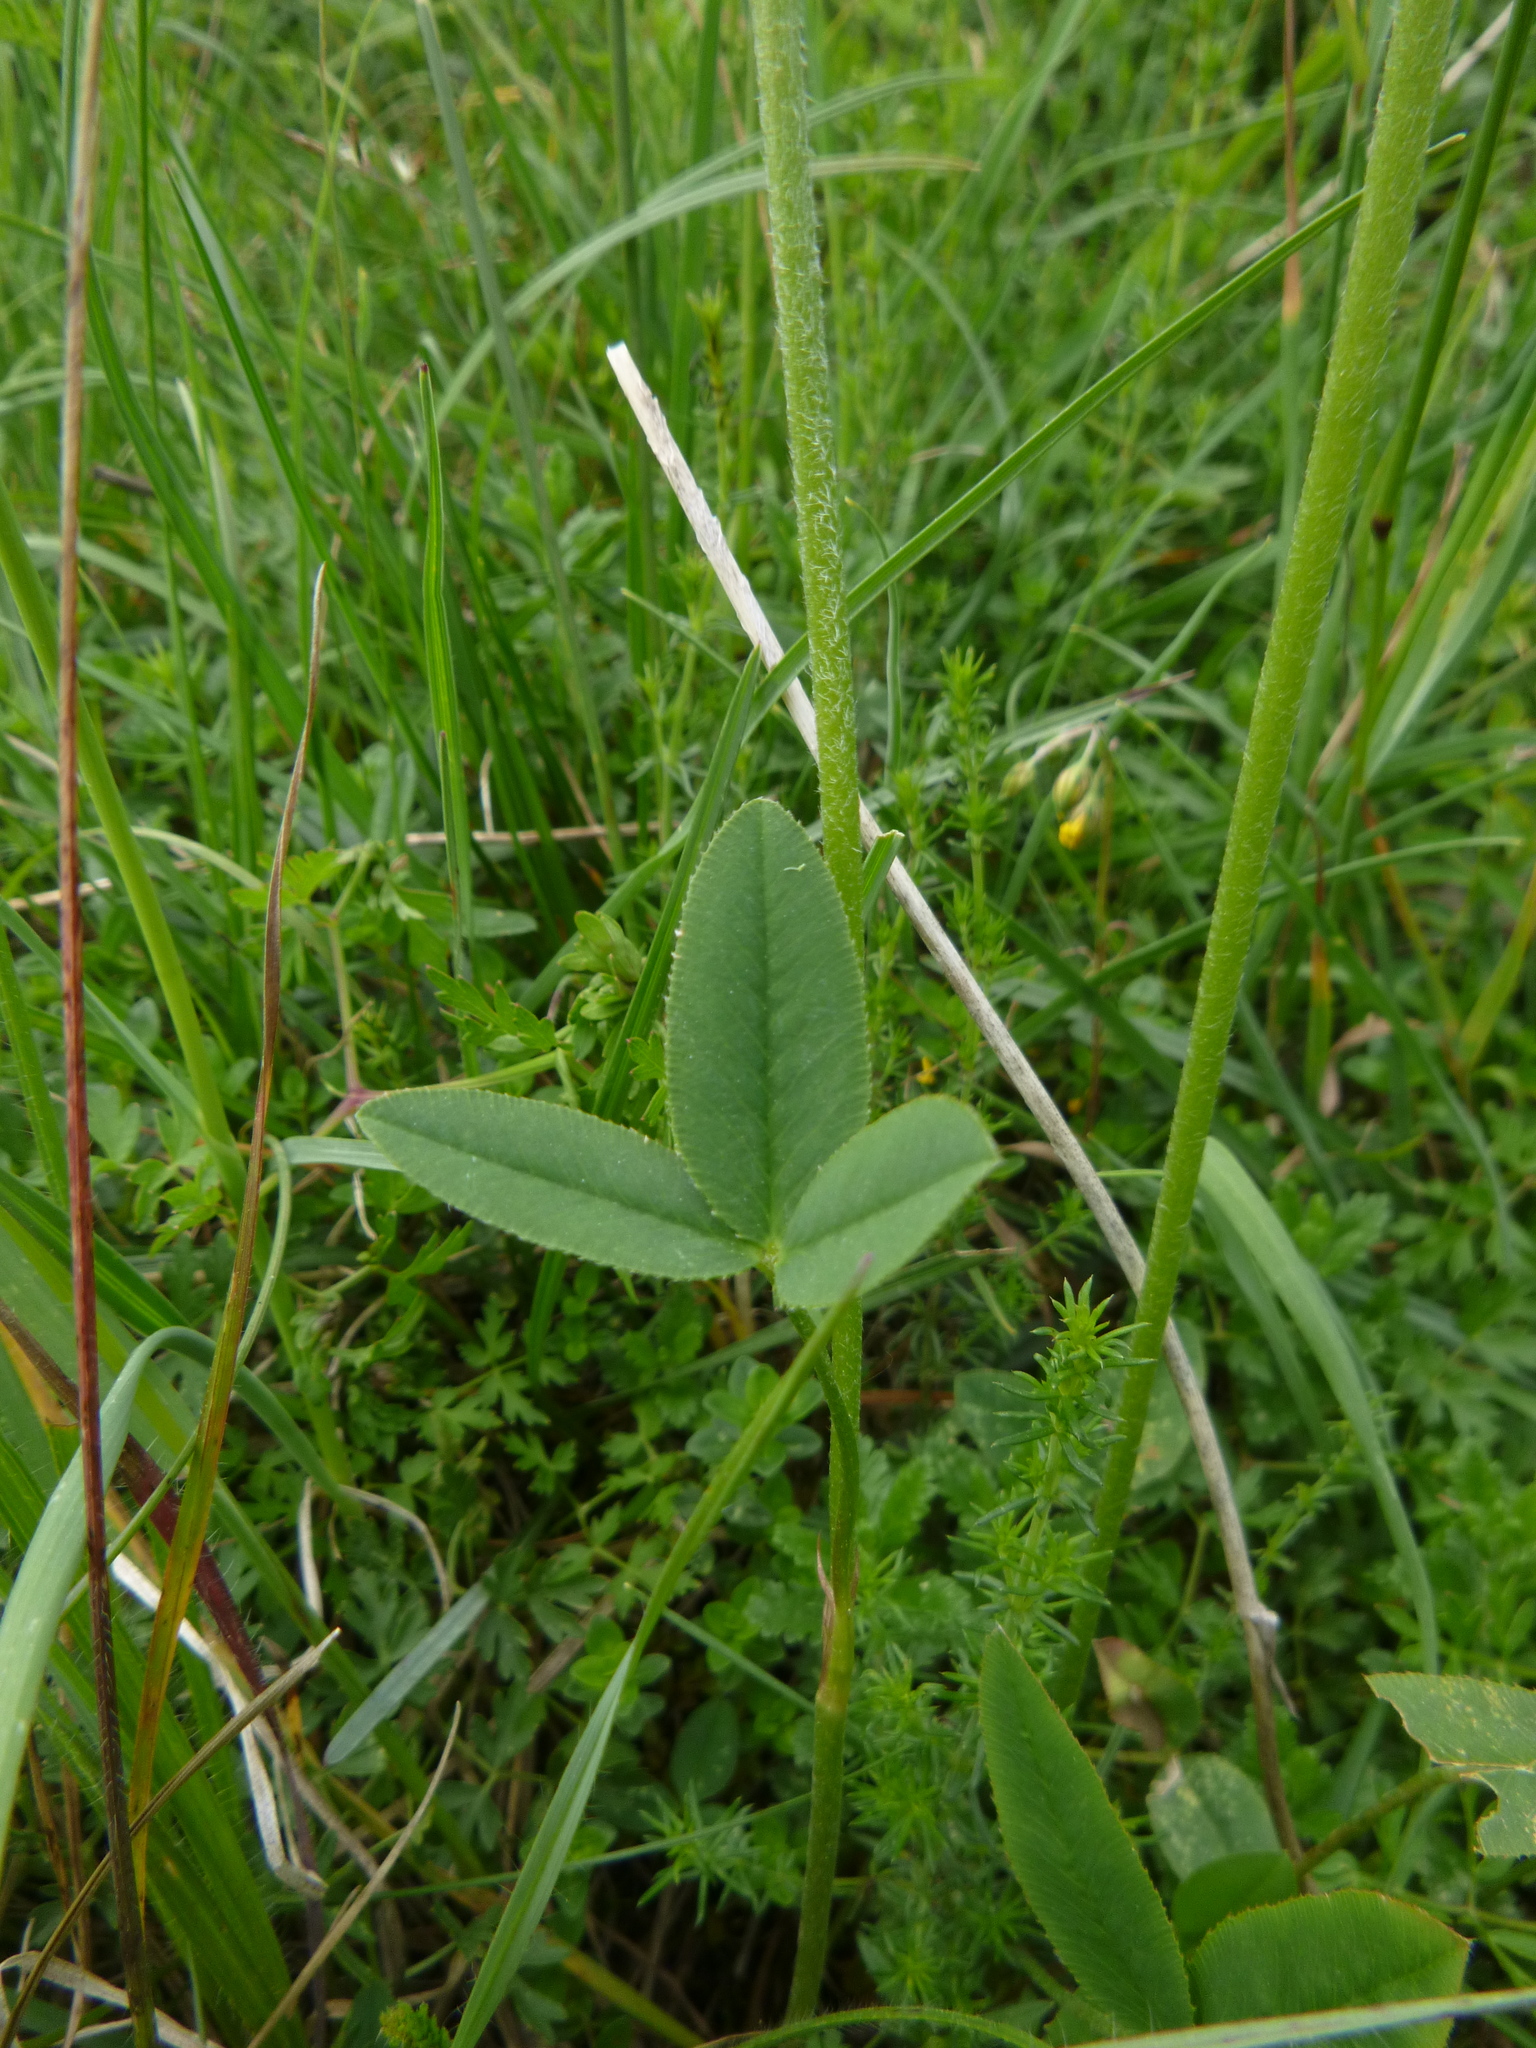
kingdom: Plantae
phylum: Tracheophyta
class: Magnoliopsida
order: Fabales
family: Fabaceae
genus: Trifolium
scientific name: Trifolium montanum
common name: Mountain clover
